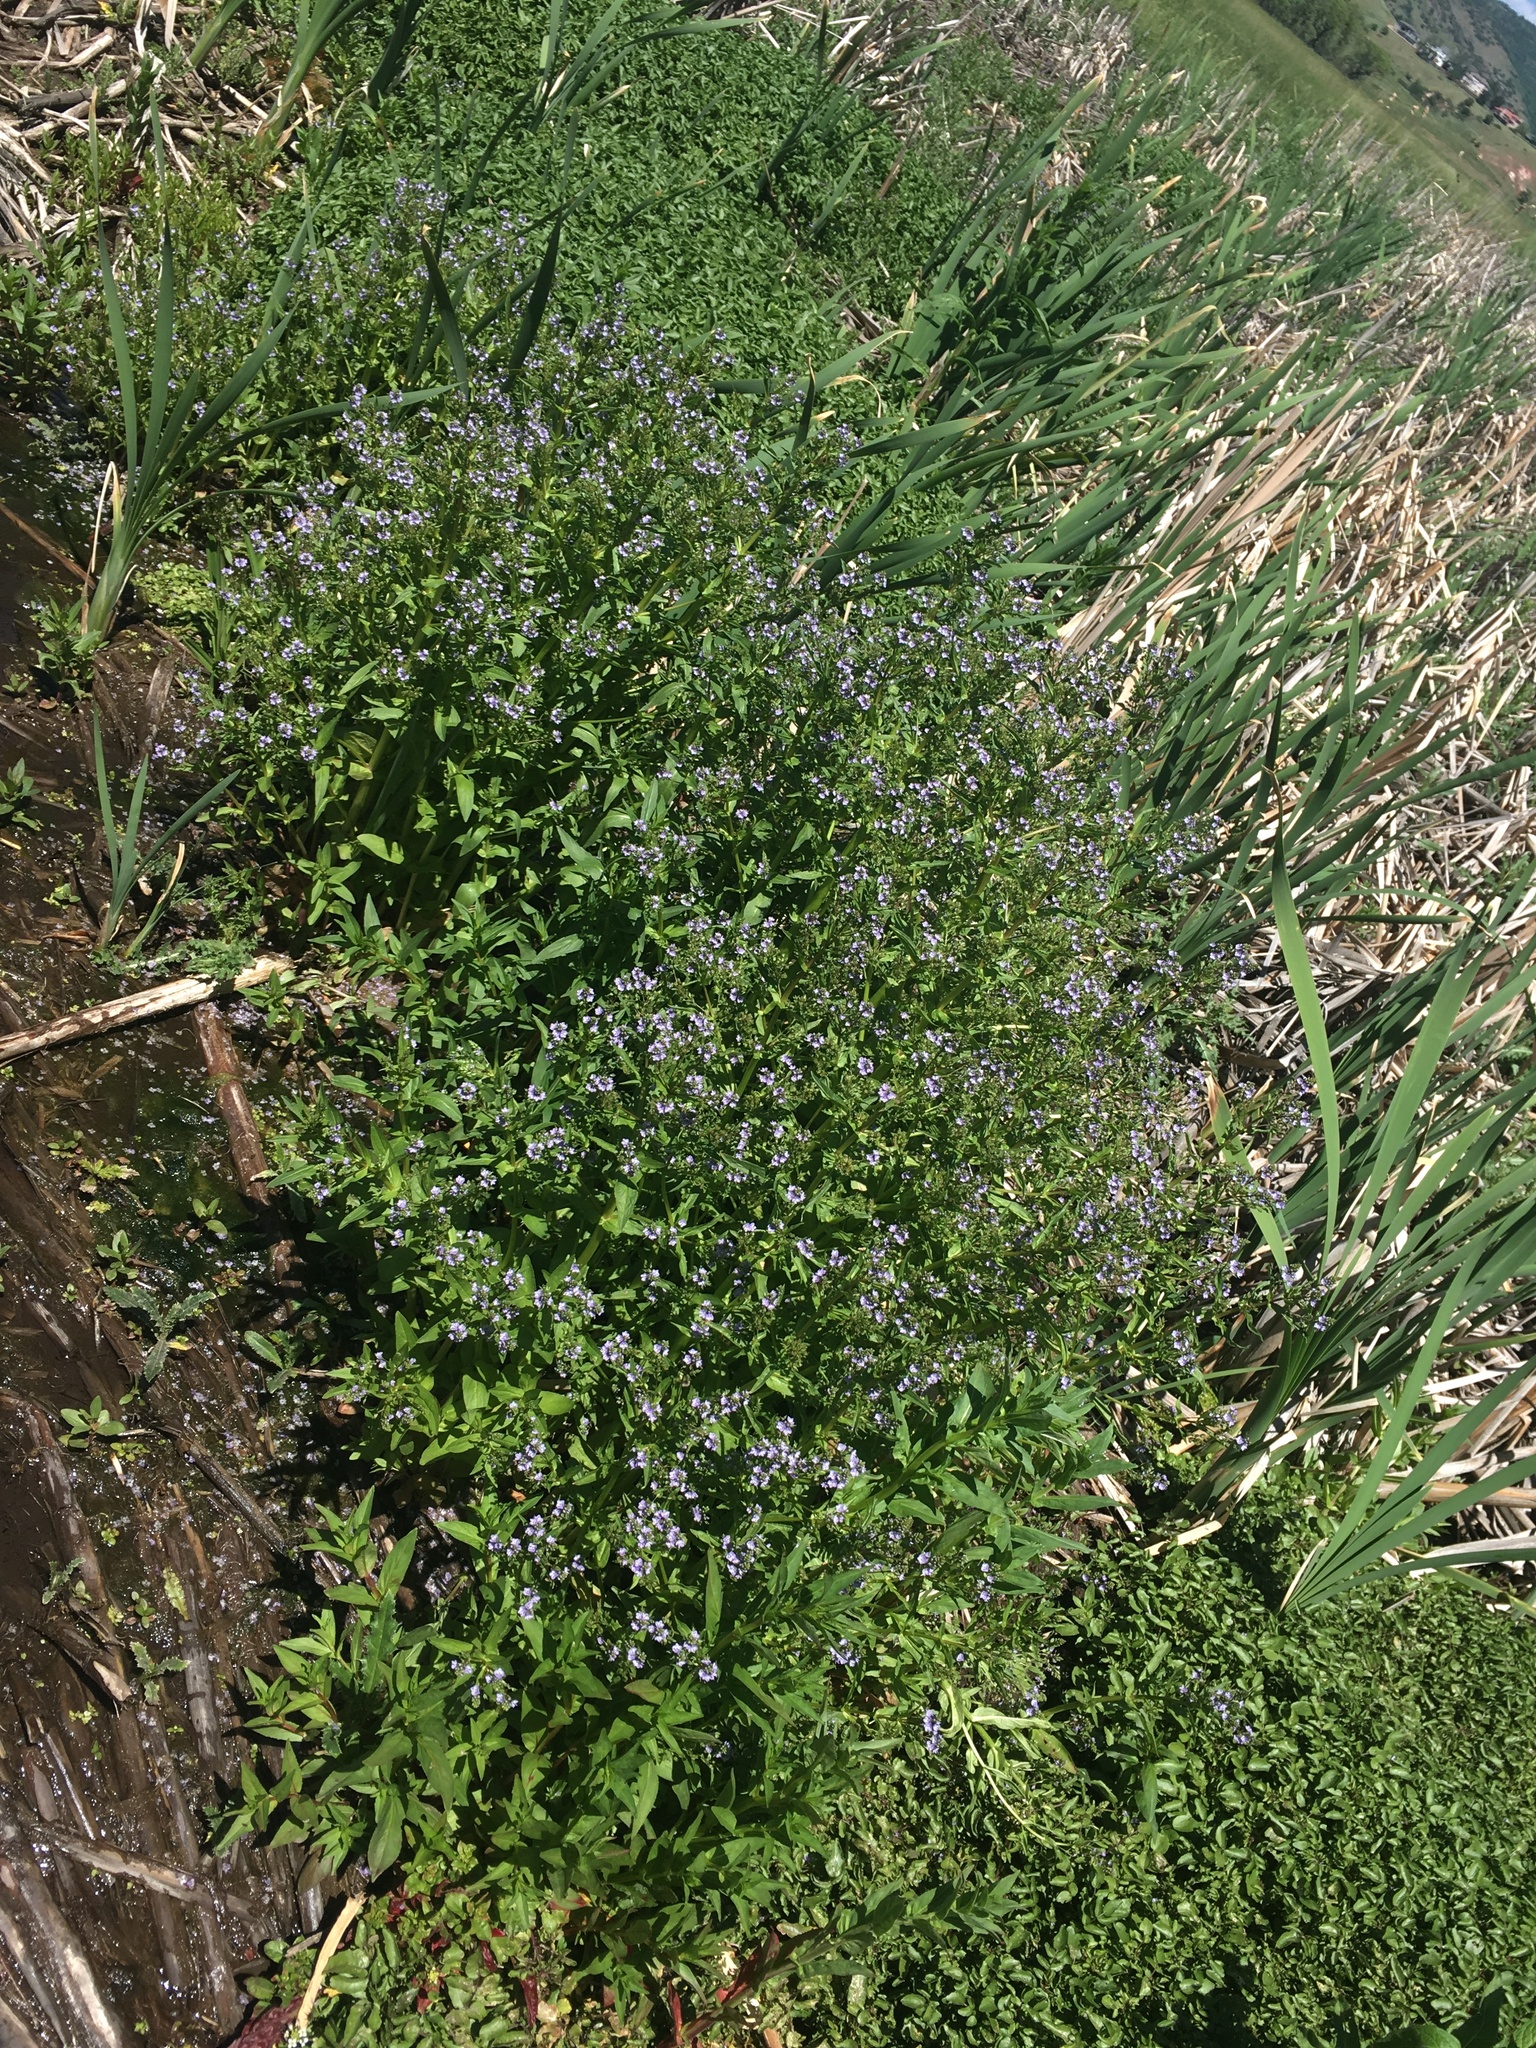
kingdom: Plantae
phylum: Tracheophyta
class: Magnoliopsida
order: Lamiales
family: Plantaginaceae
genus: Veronica
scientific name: Veronica anagallis-aquatica
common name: Water speedwell
